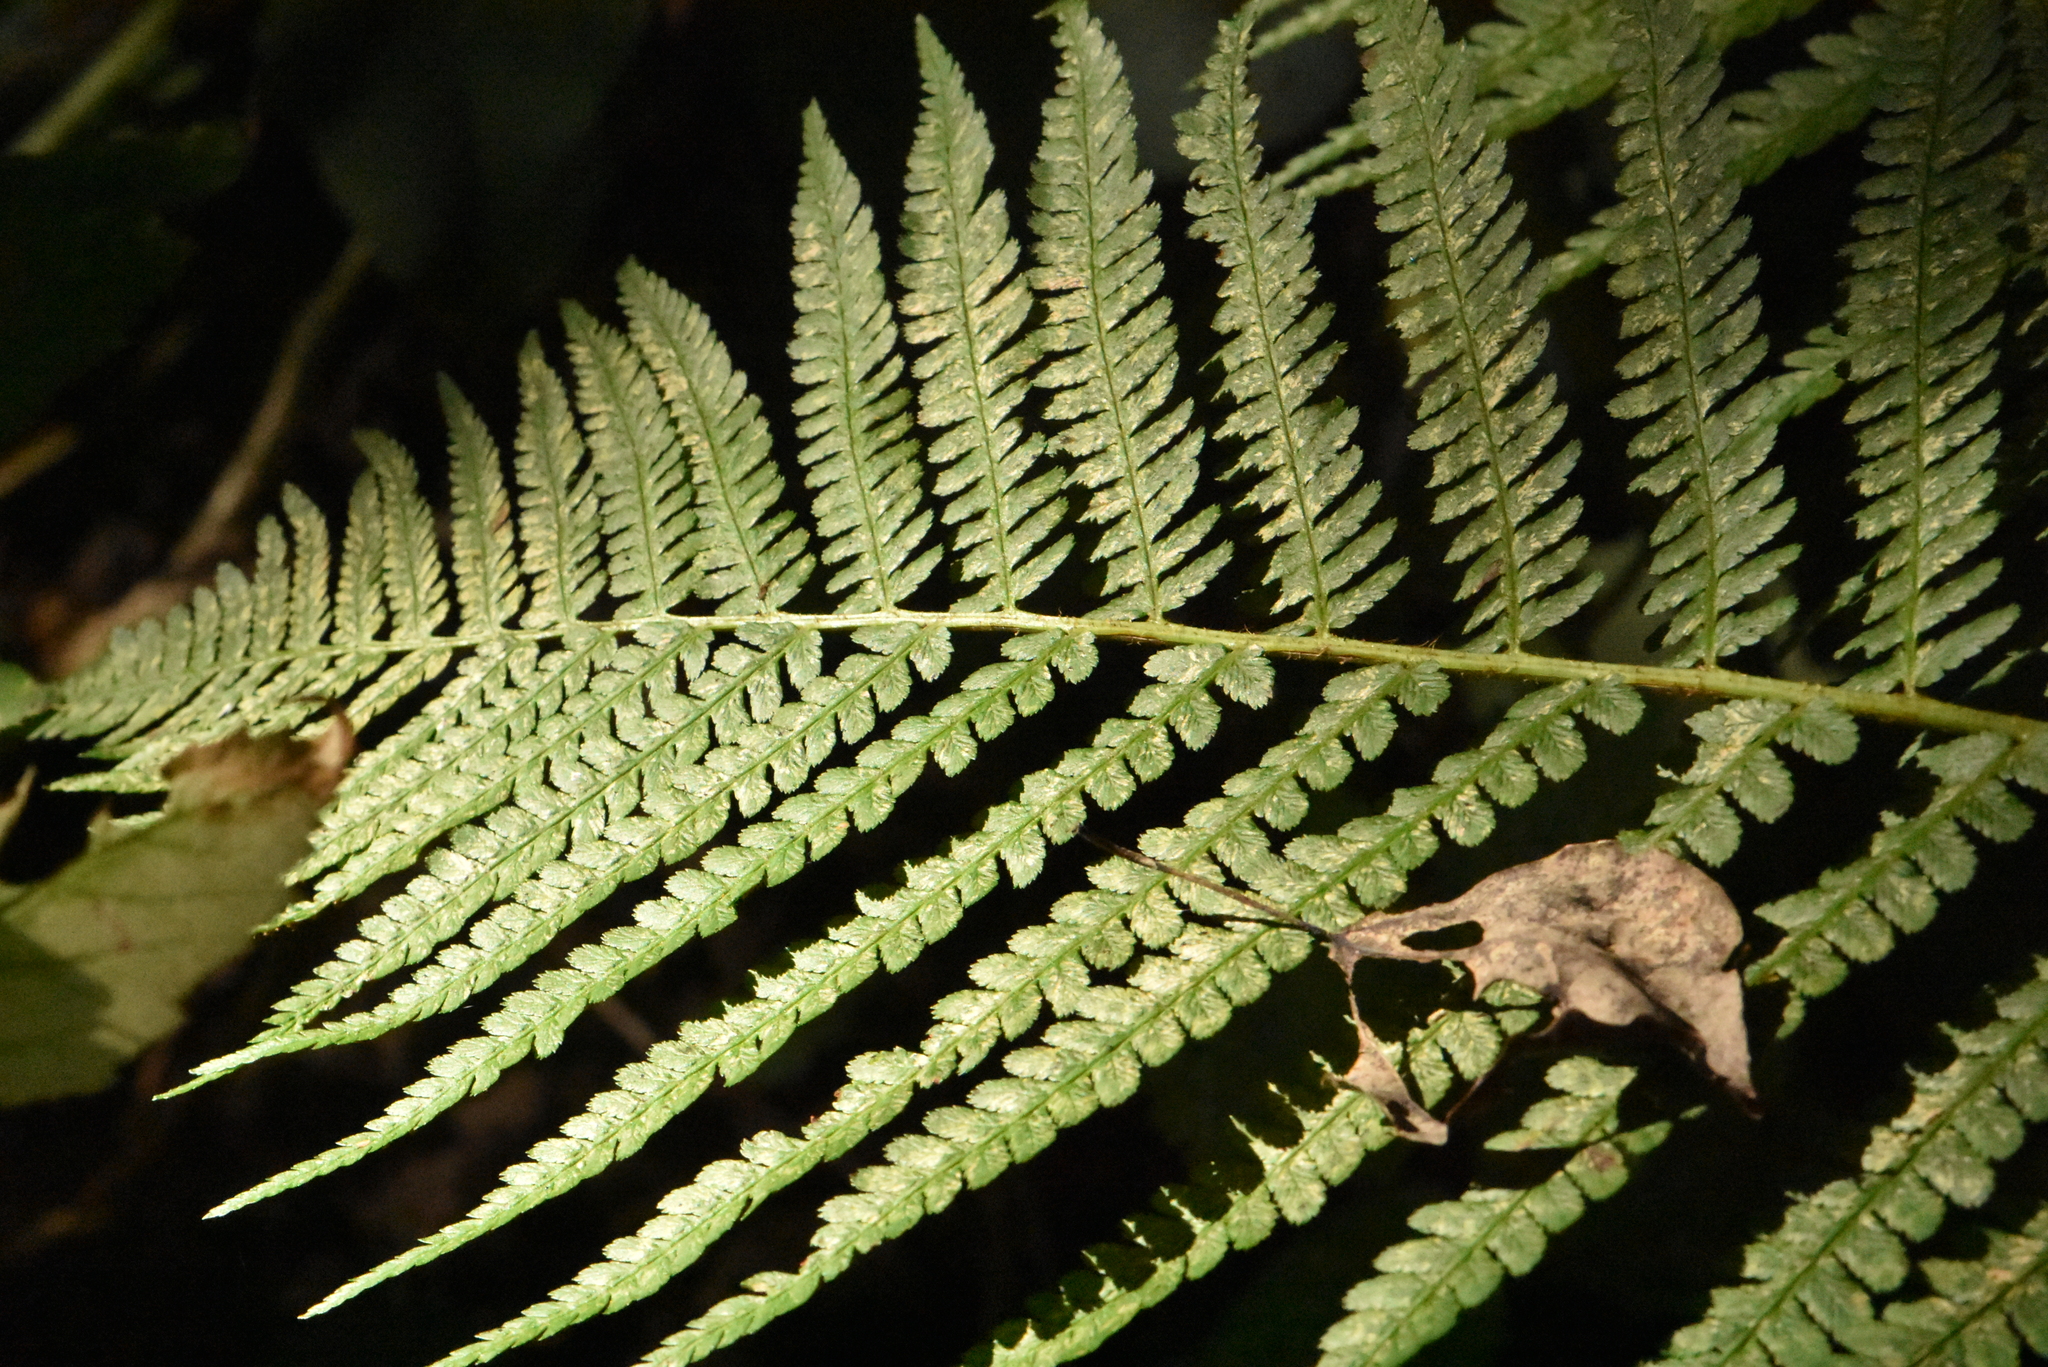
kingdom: Plantae
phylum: Tracheophyta
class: Polypodiopsida
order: Polypodiales
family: Dryopteridaceae
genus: Dryopteris
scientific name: Dryopteris filix-mas
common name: Male fern
